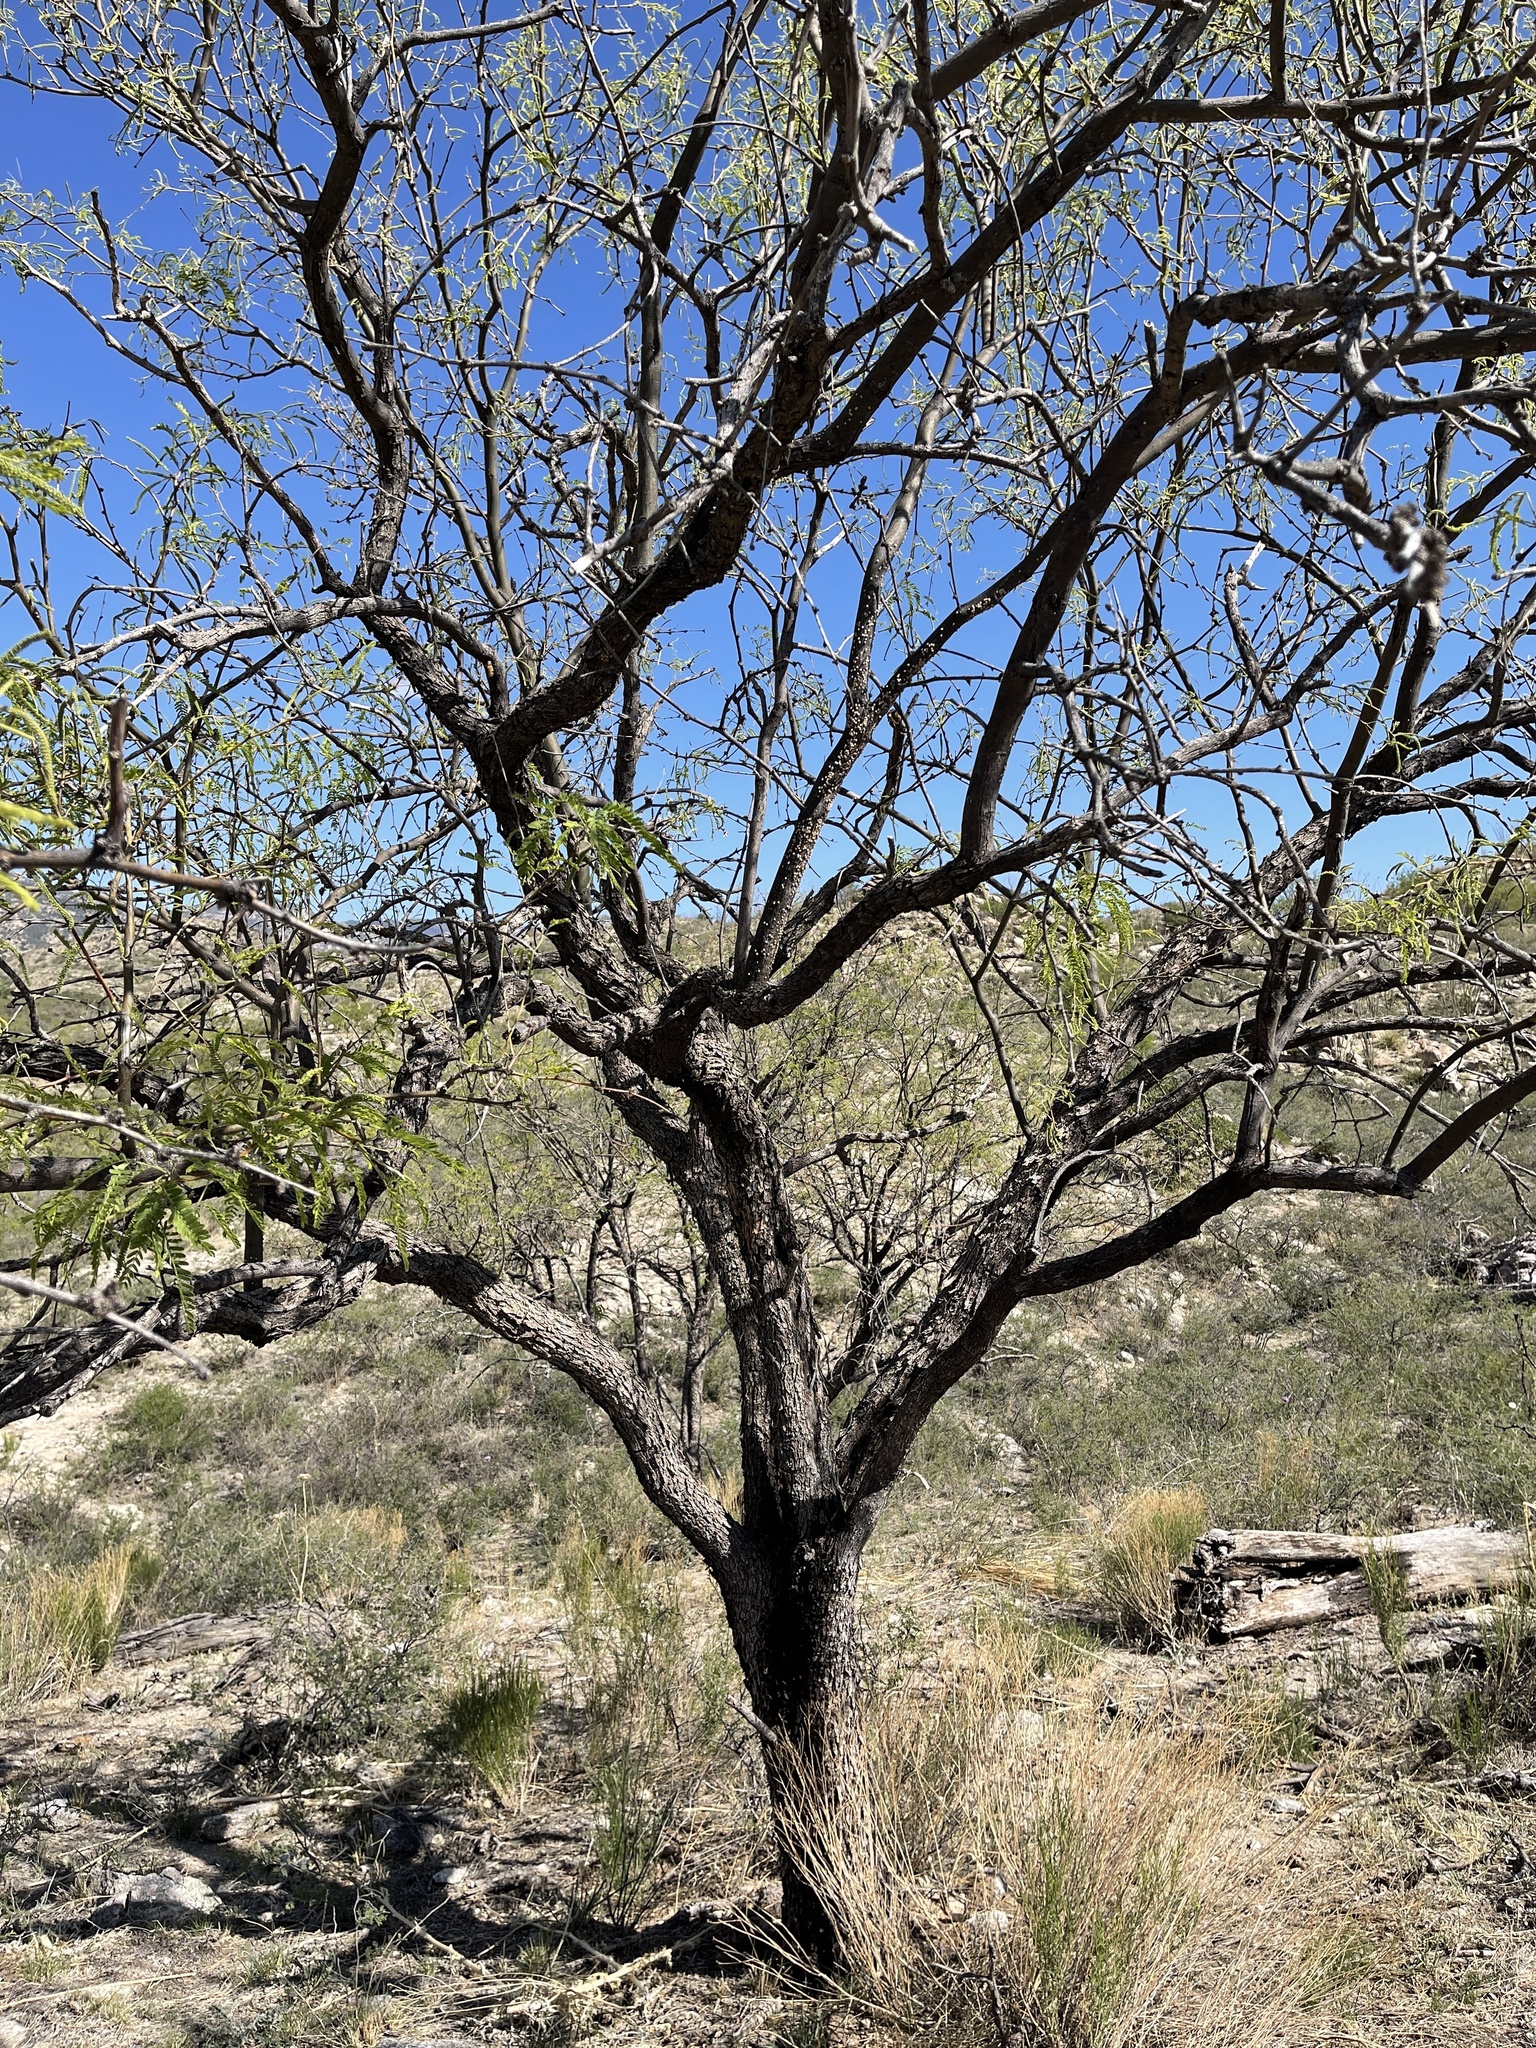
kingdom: Plantae
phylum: Tracheophyta
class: Magnoliopsida
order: Fabales
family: Fabaceae
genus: Prosopis
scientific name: Prosopis velutina
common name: Velvet mesquite
